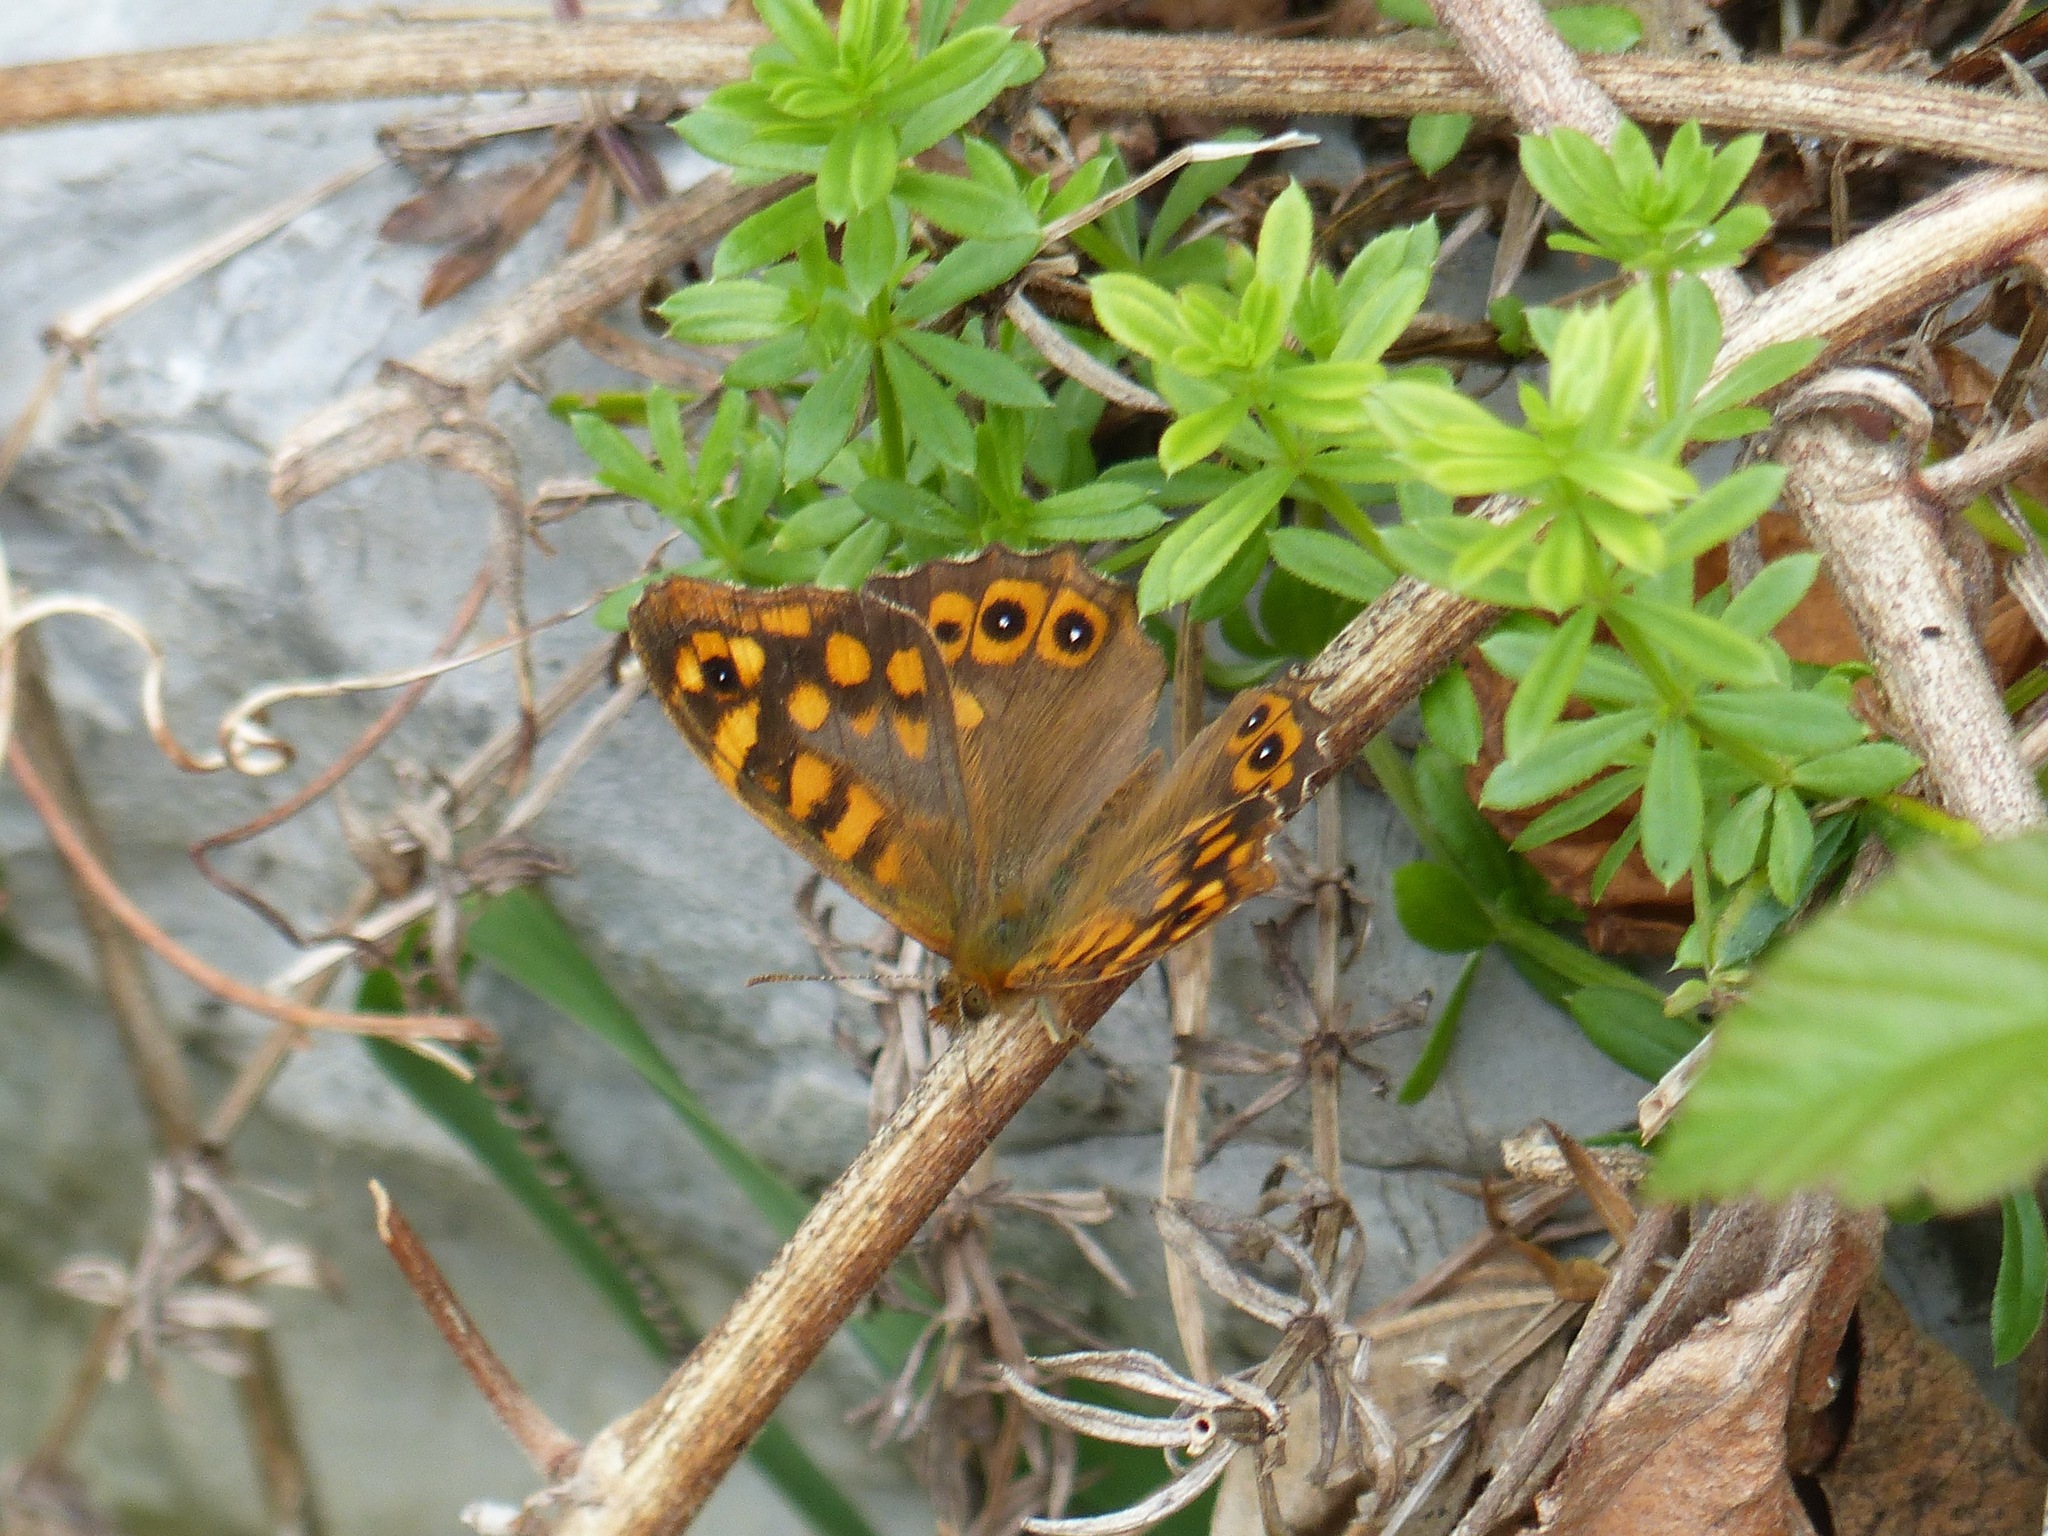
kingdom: Animalia
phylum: Arthropoda
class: Insecta
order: Lepidoptera
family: Nymphalidae
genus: Pararge
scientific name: Pararge aegeria
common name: Speckled wood
